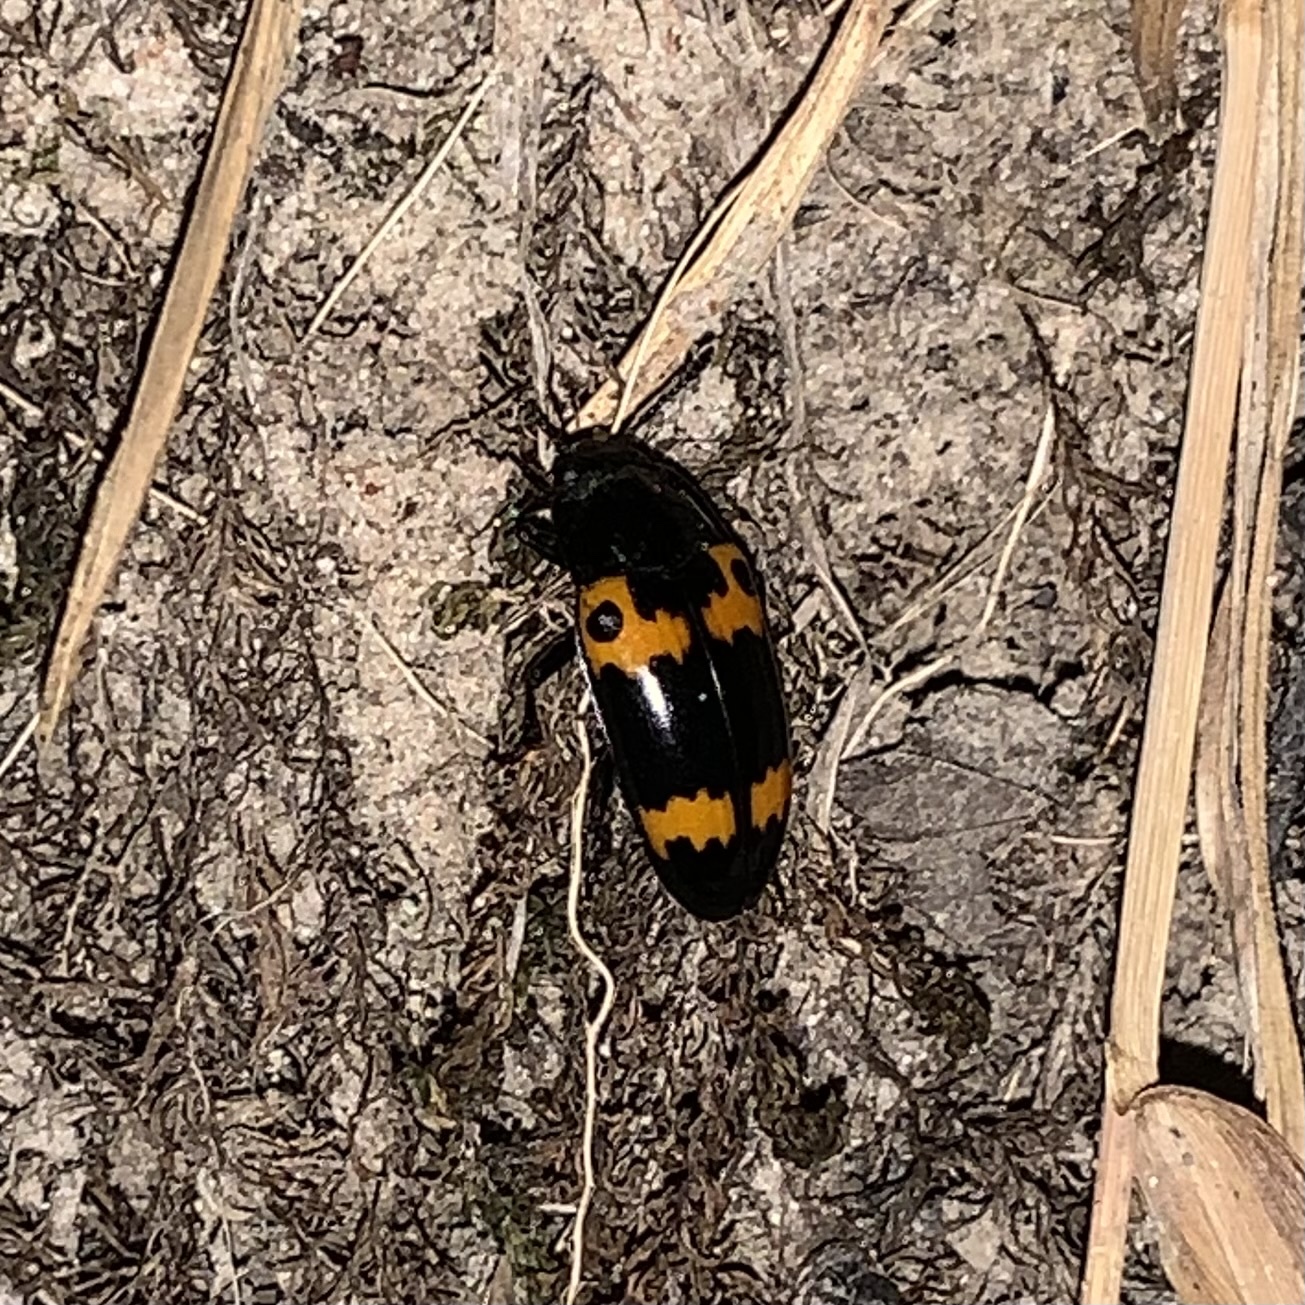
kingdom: Animalia
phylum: Arthropoda
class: Insecta
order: Coleoptera
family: Erotylidae
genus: Megalodacne
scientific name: Megalodacne fasciata
